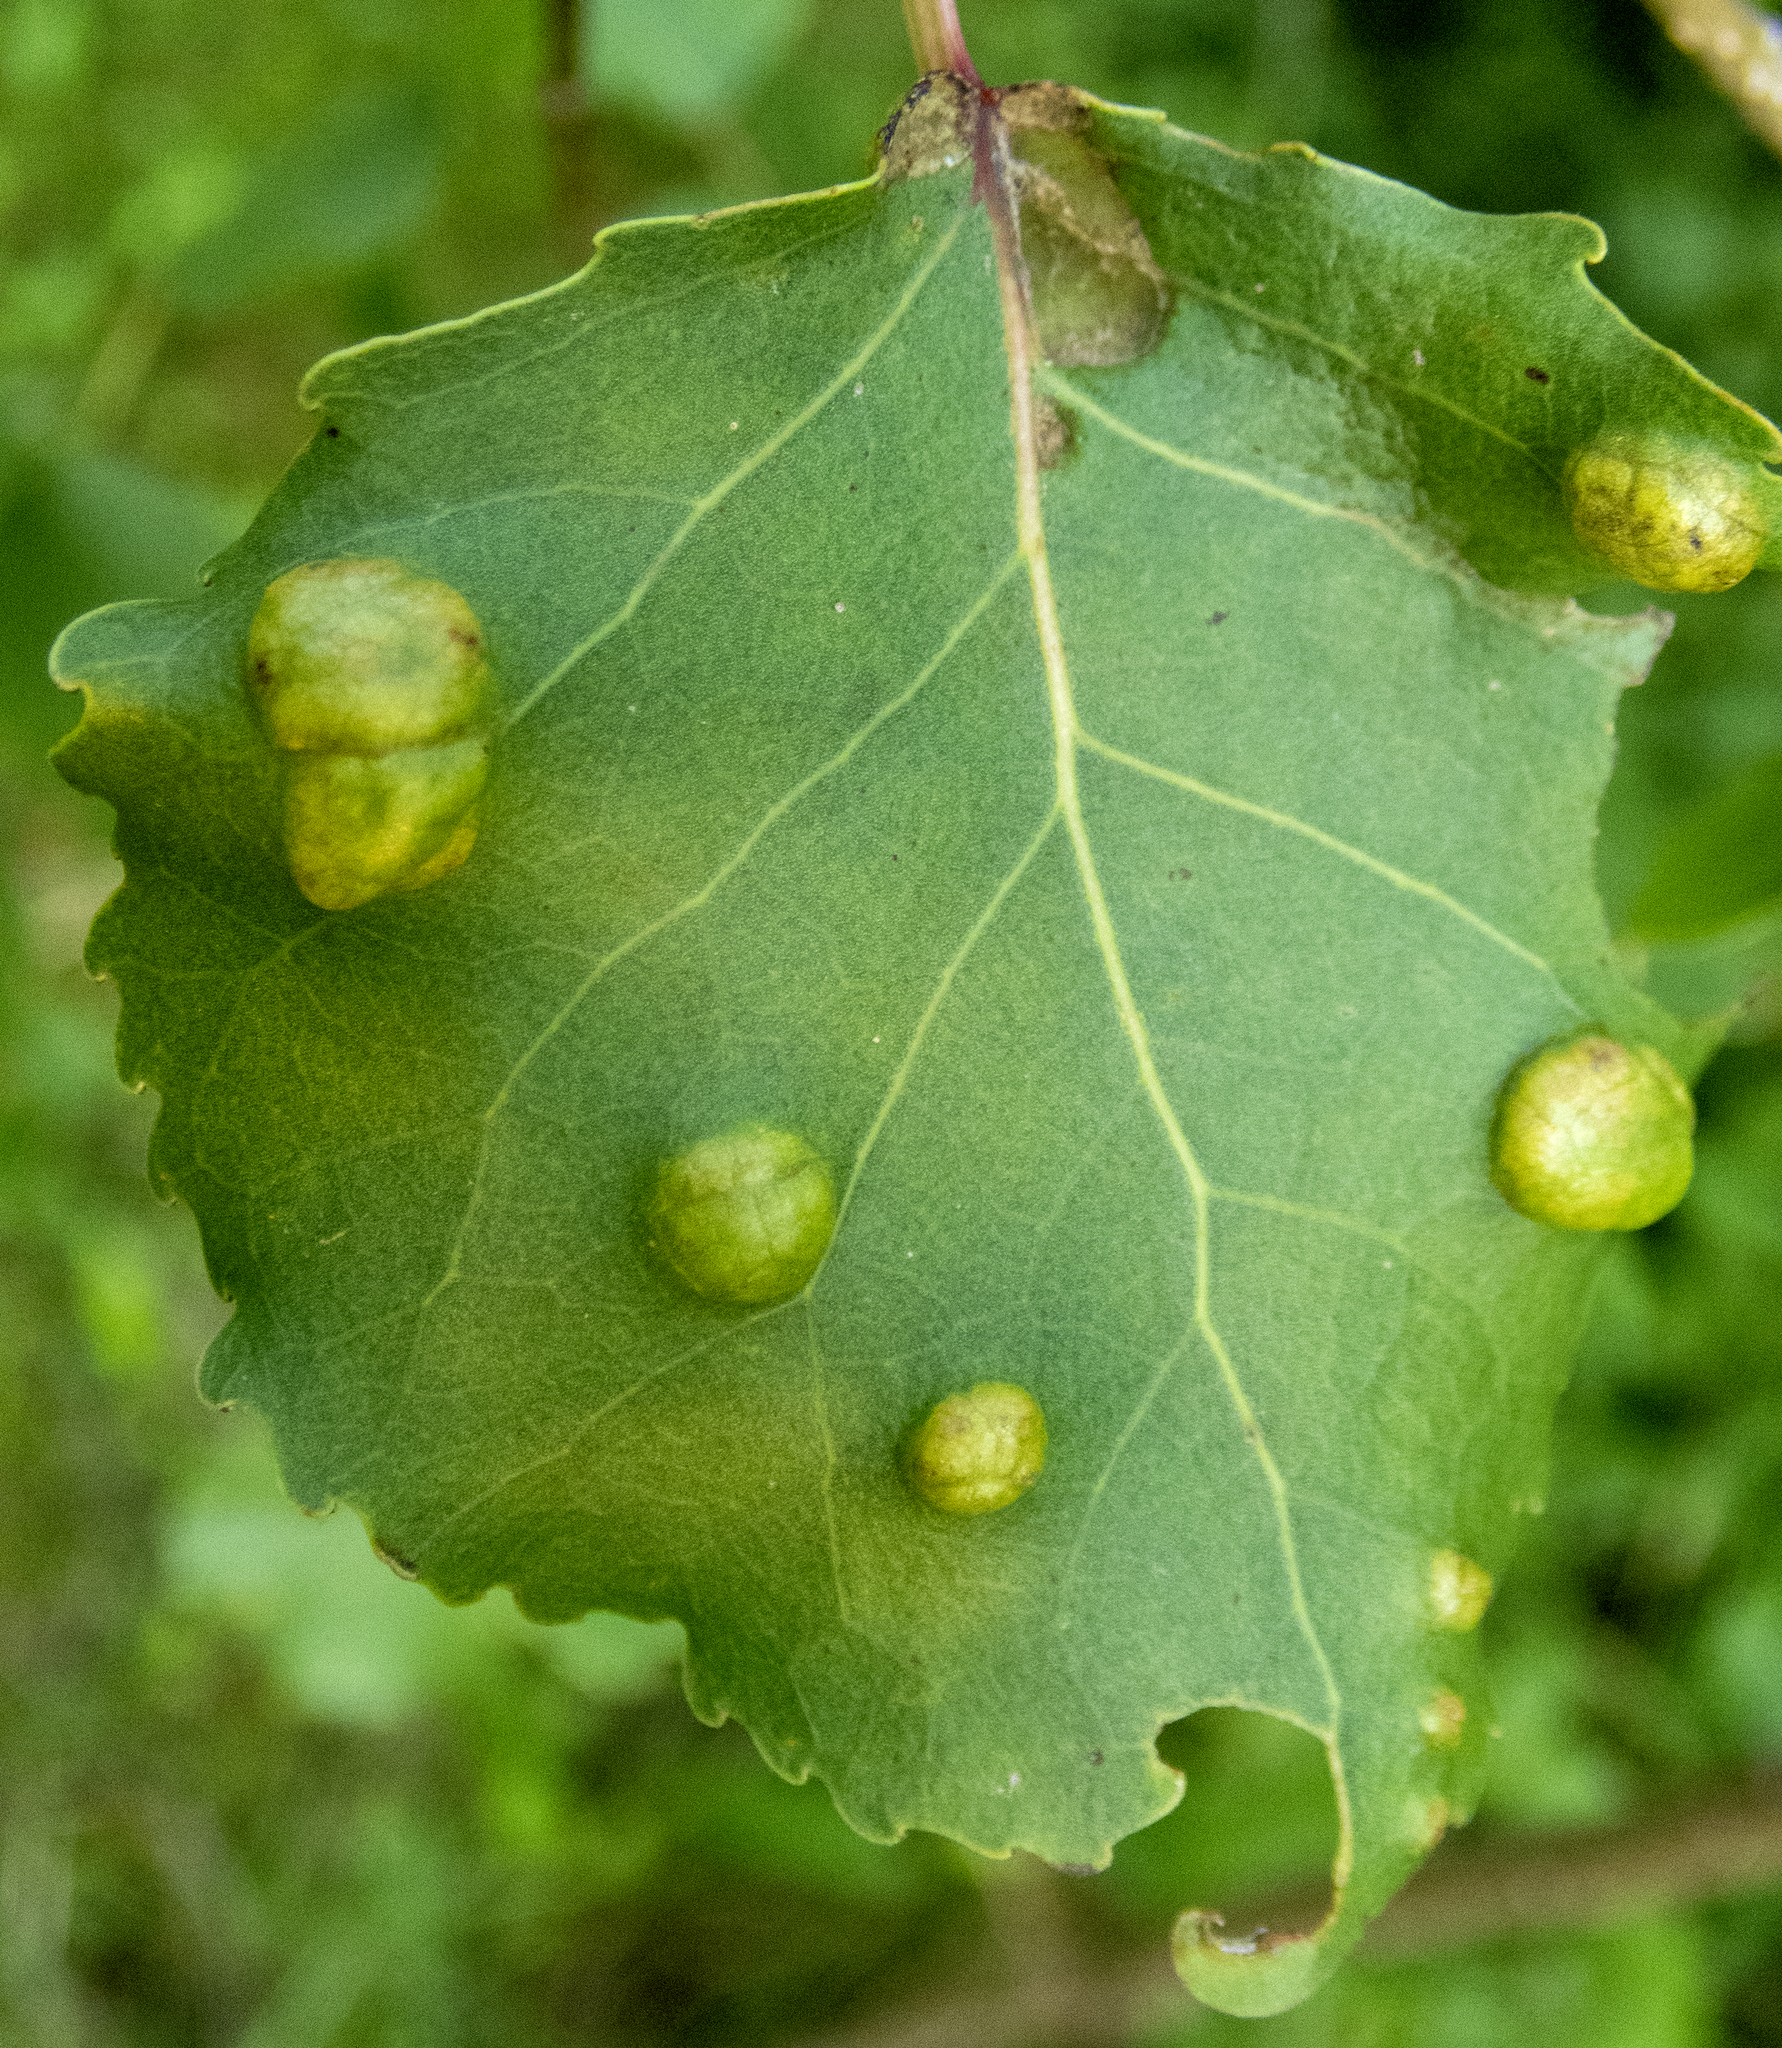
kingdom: Fungi
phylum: Ascomycota
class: Taphrinomycetes
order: Taphrinales
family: Taphrinaceae
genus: Taphrina
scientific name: Taphrina populina
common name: Poplar leaf curl
